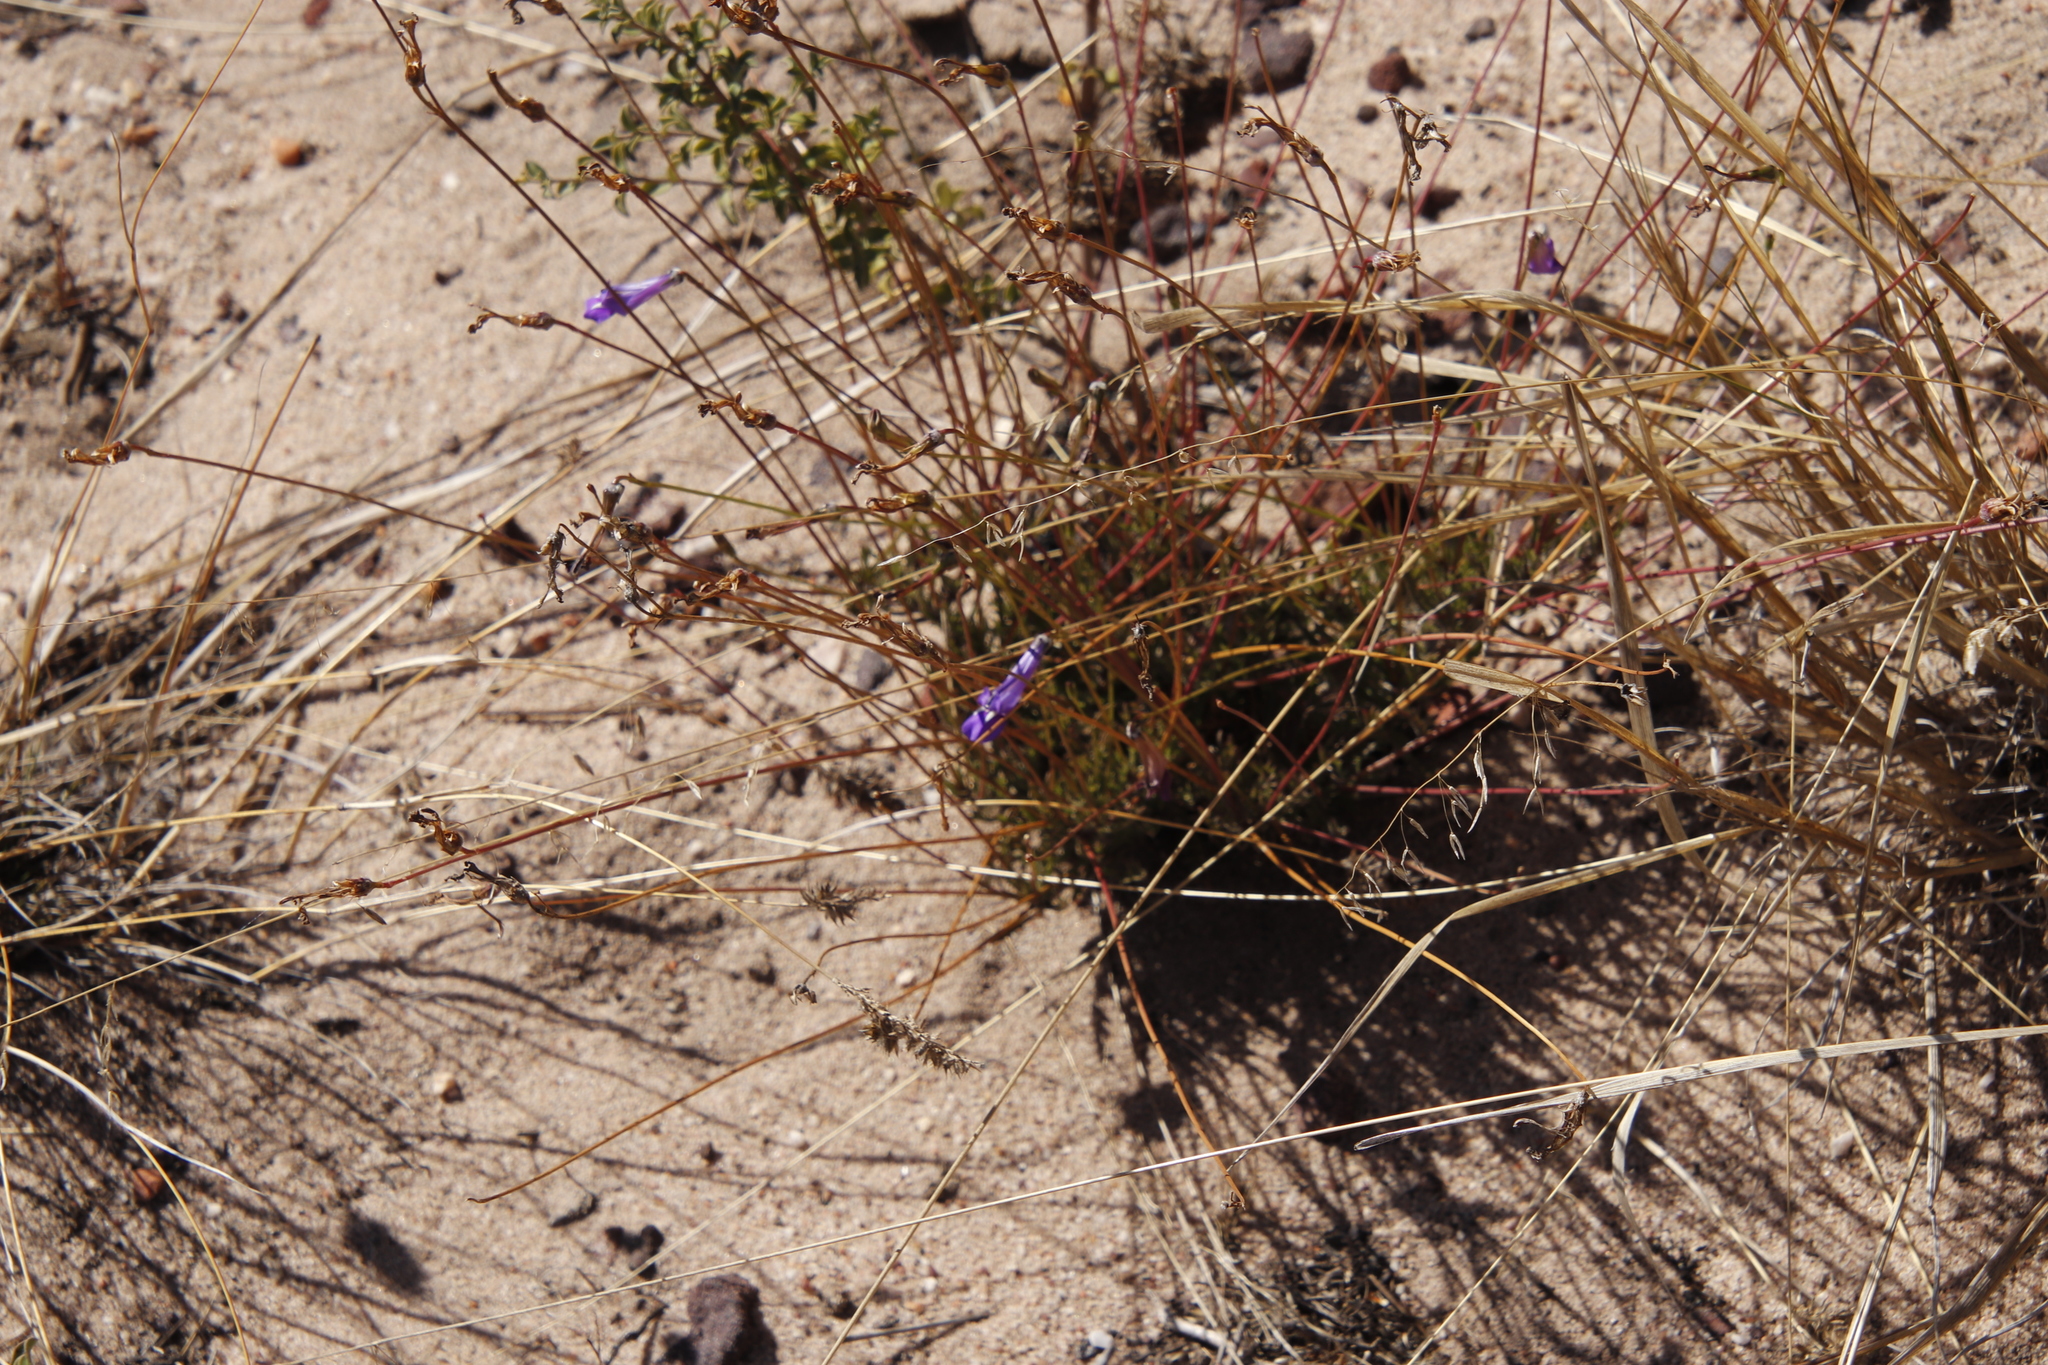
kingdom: Plantae
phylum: Tracheophyta
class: Magnoliopsida
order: Asterales
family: Campanulaceae
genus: Lobelia
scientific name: Lobelia coronopifolia
